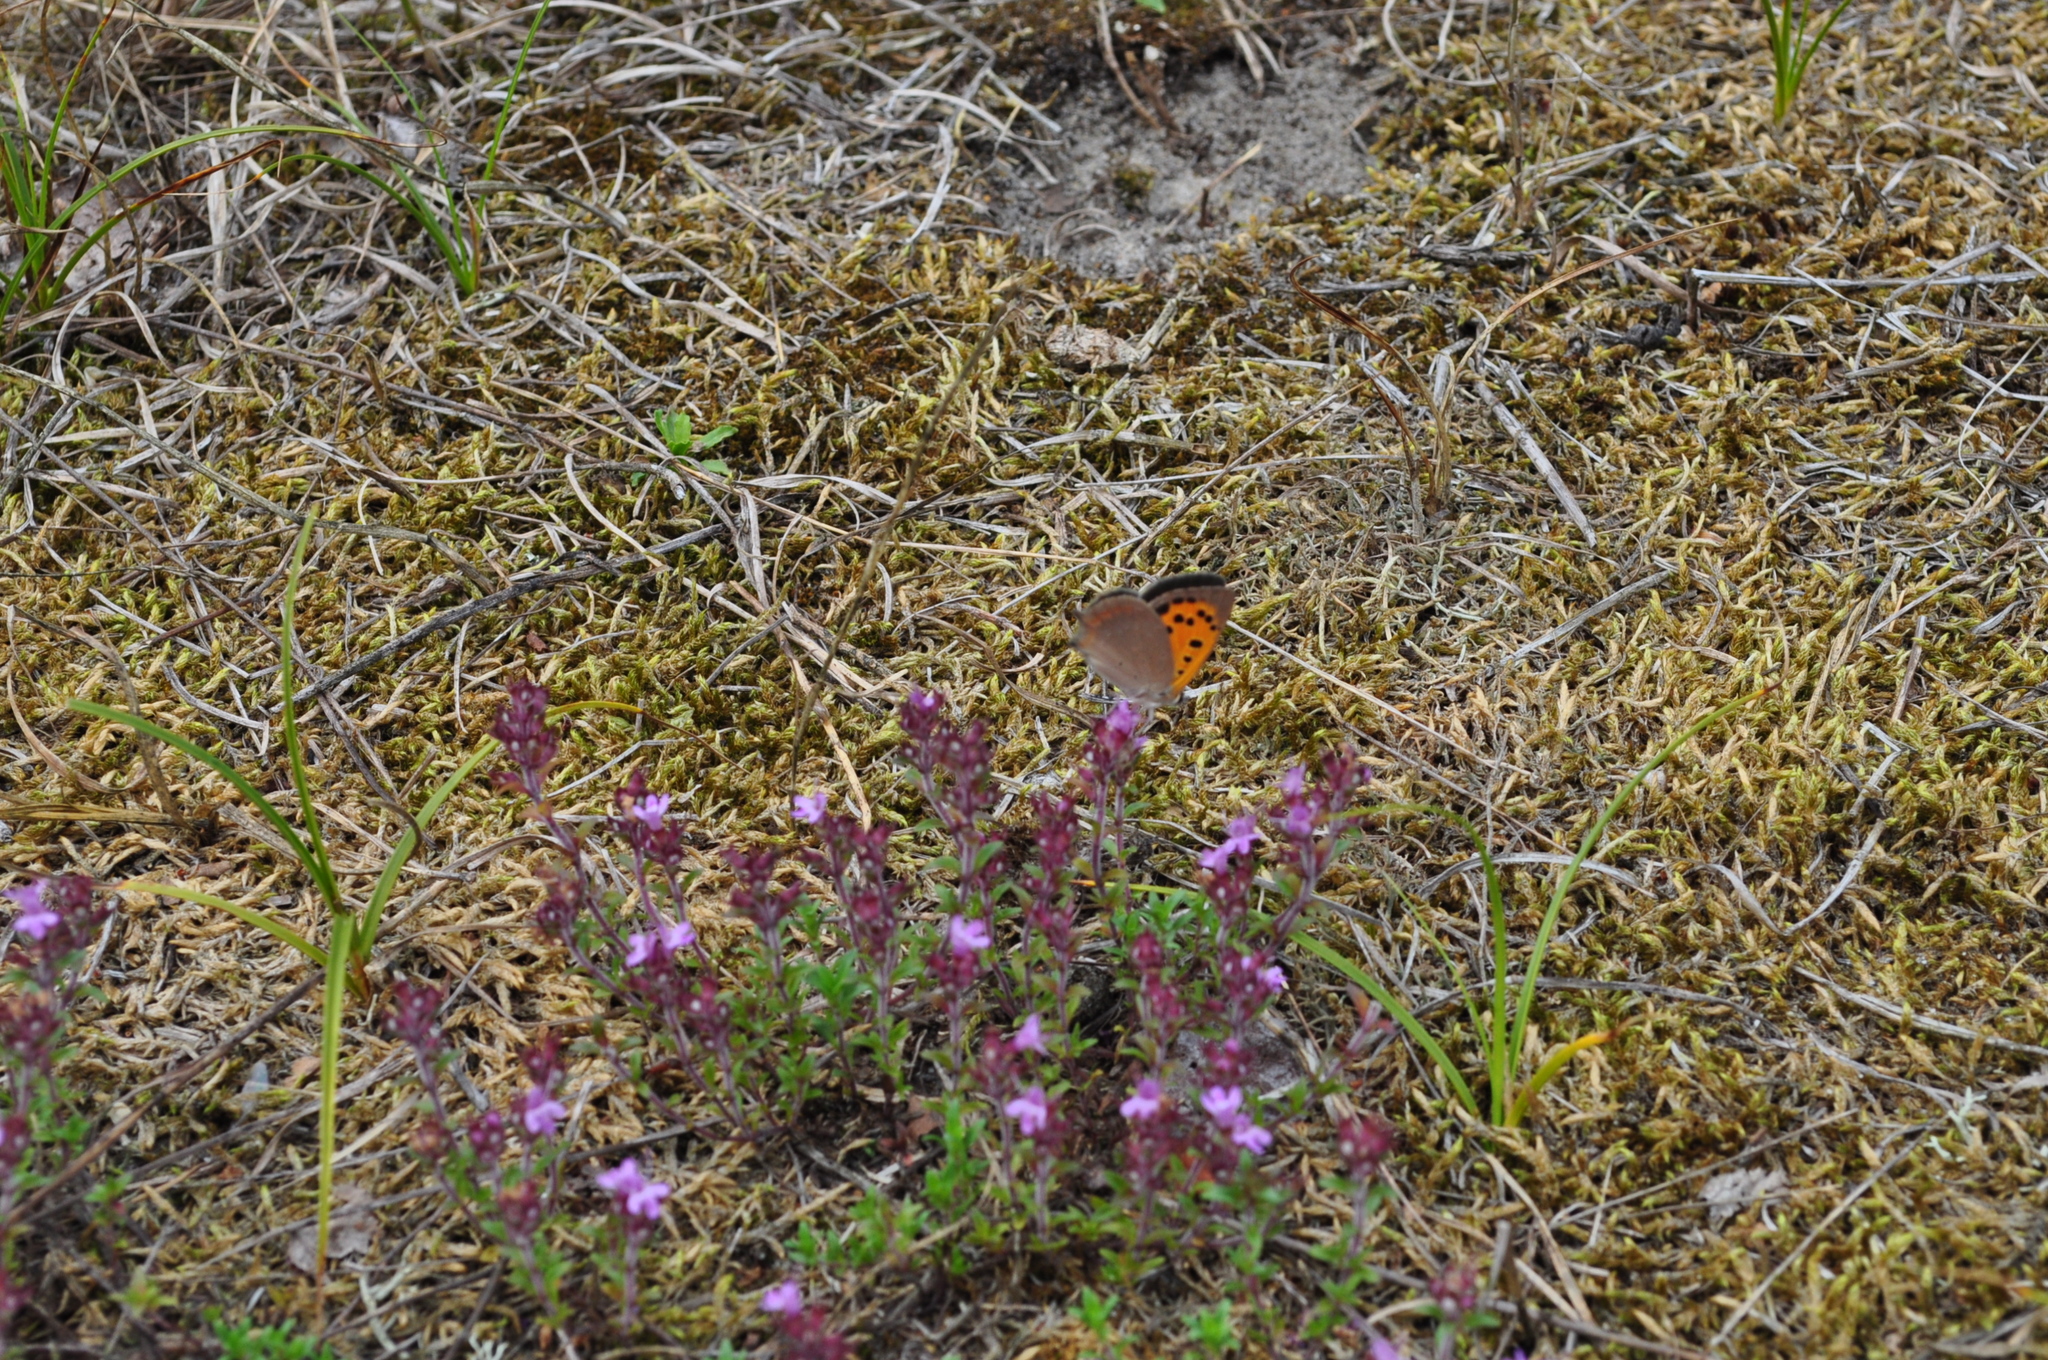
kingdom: Animalia
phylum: Arthropoda
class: Insecta
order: Lepidoptera
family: Lycaenidae
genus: Lycaena
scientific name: Lycaena phlaeas
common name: Small copper
